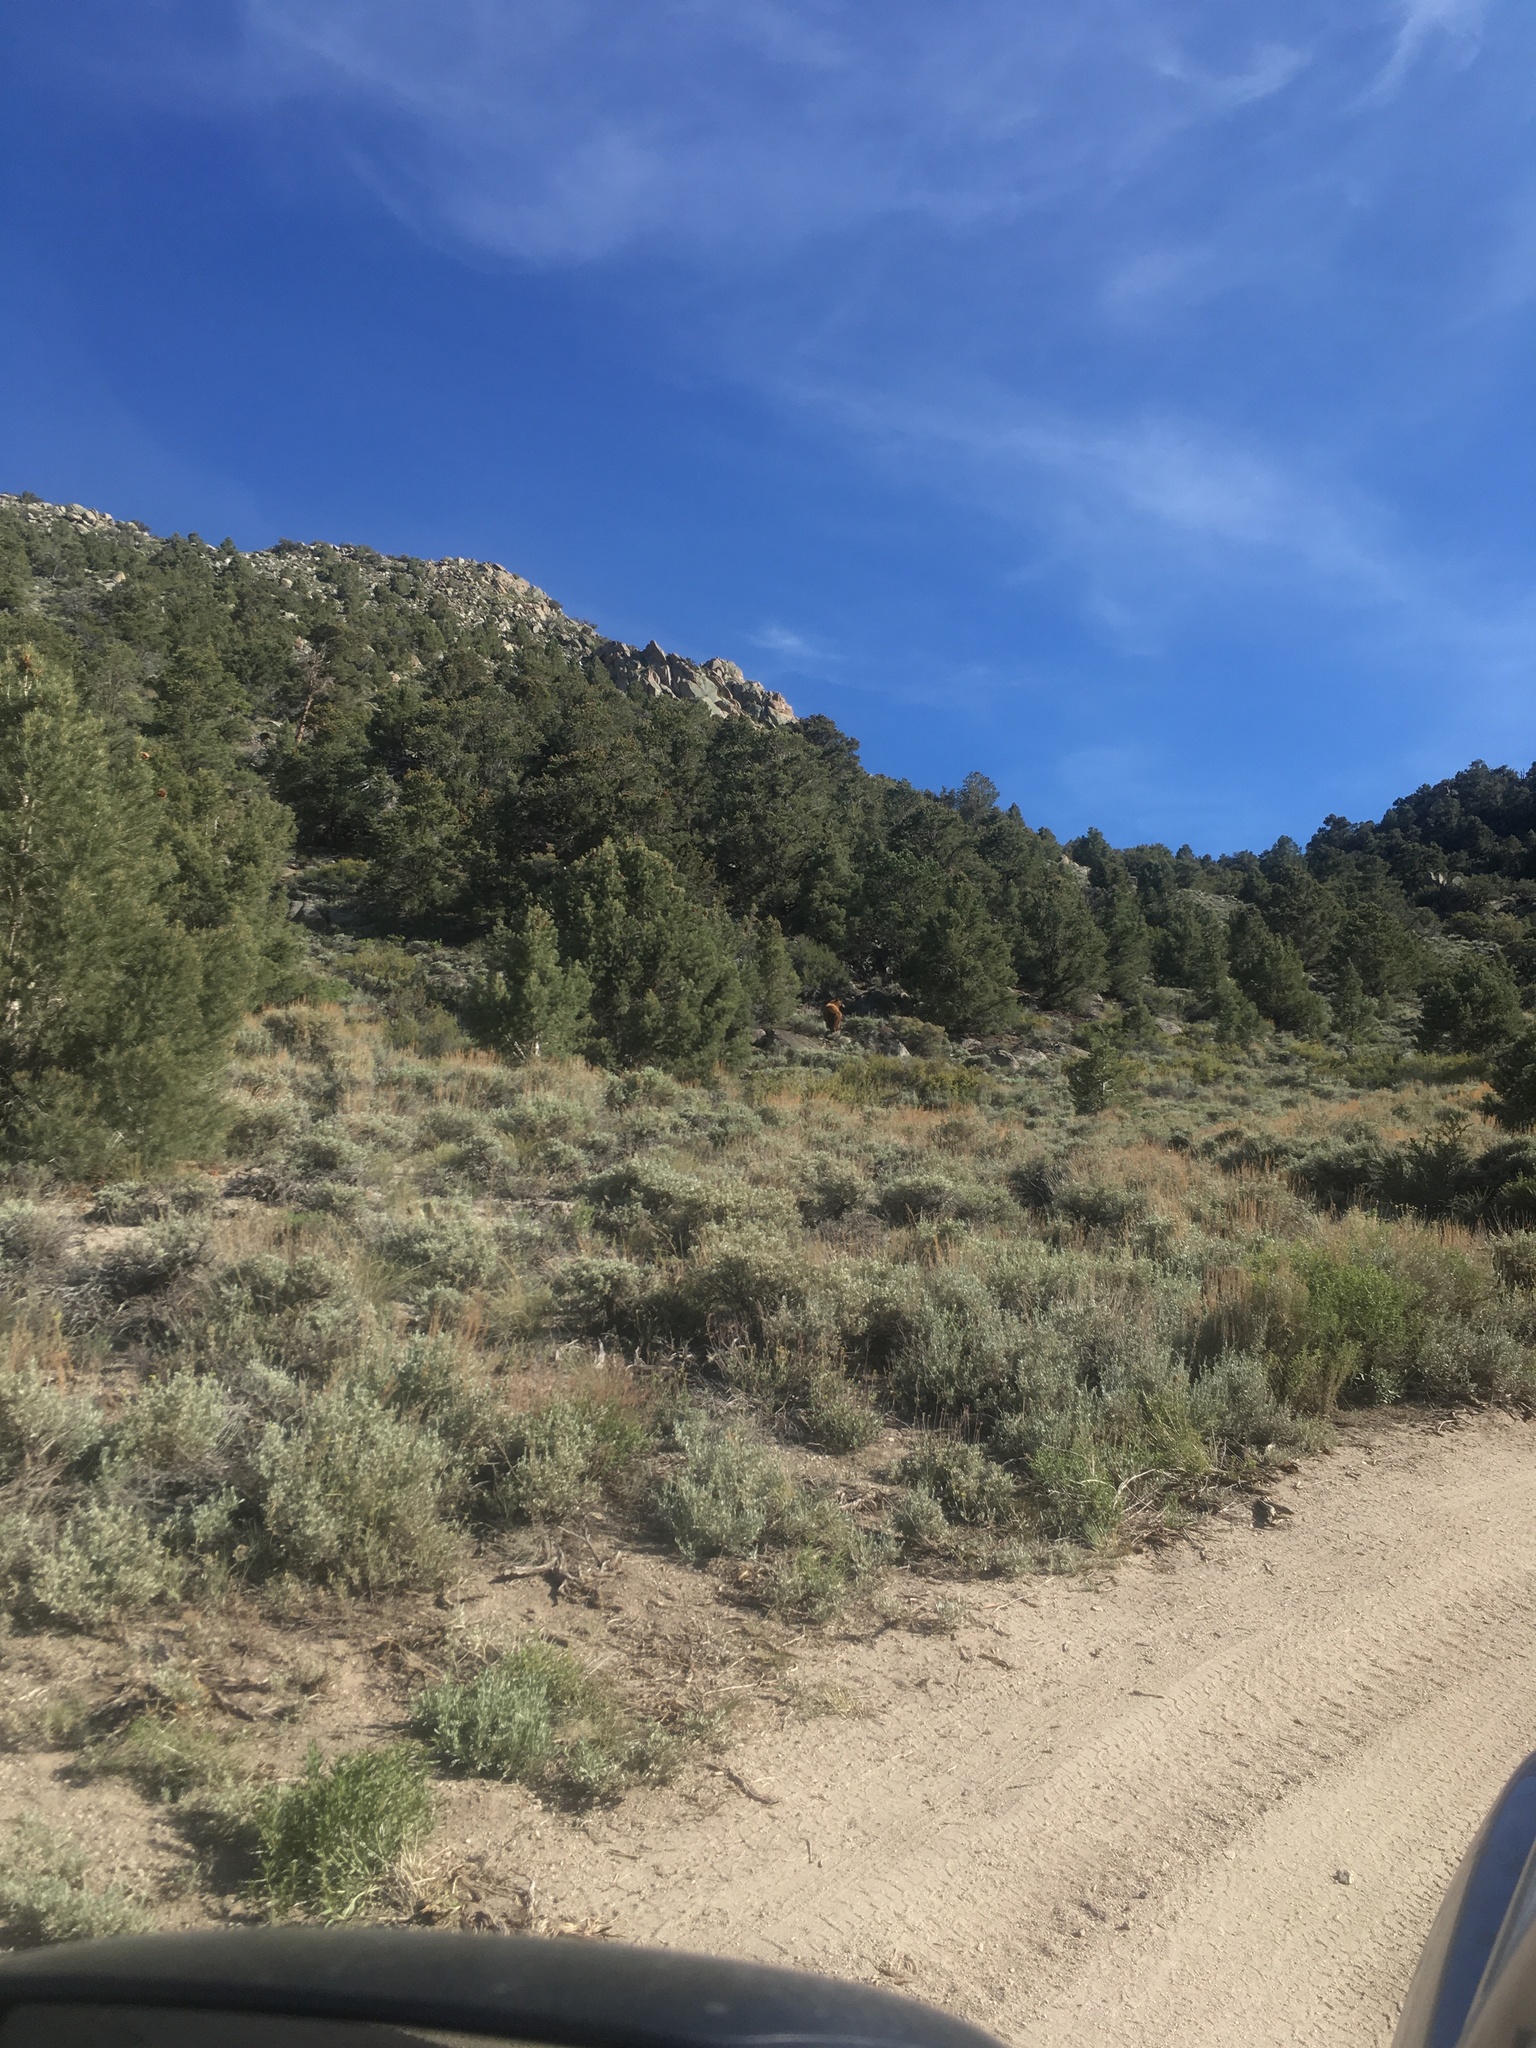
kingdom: Animalia
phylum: Chordata
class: Mammalia
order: Carnivora
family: Ursidae
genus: Ursus
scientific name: Ursus americanus
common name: American black bear
